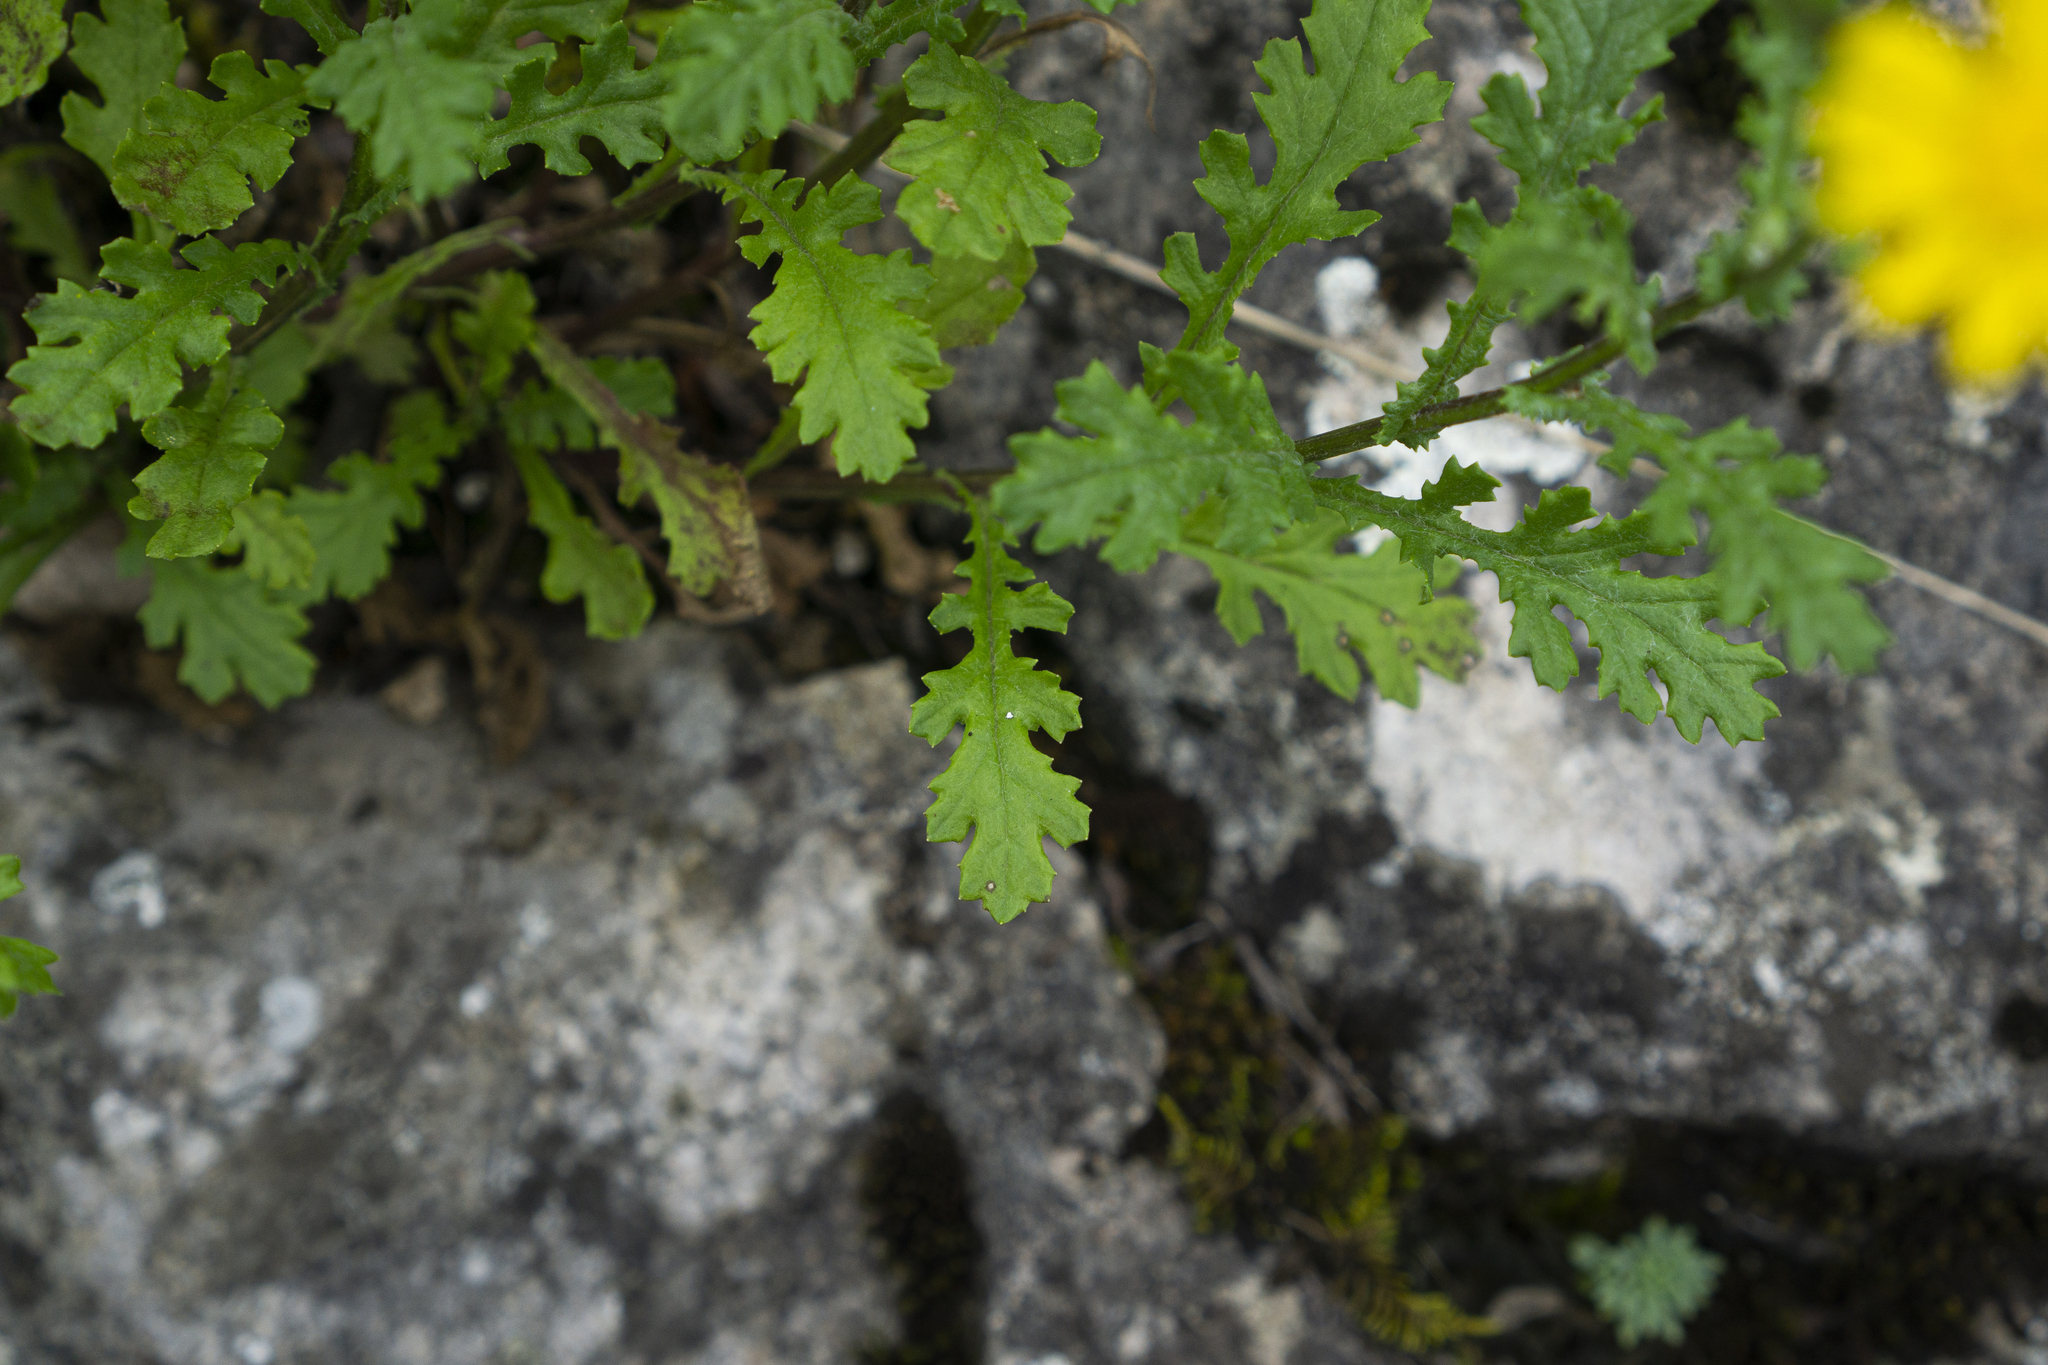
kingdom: Plantae
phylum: Tracheophyta
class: Magnoliopsida
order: Asterales
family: Asteraceae
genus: Senecio
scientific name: Senecio rupestris
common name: Rock ragwort
